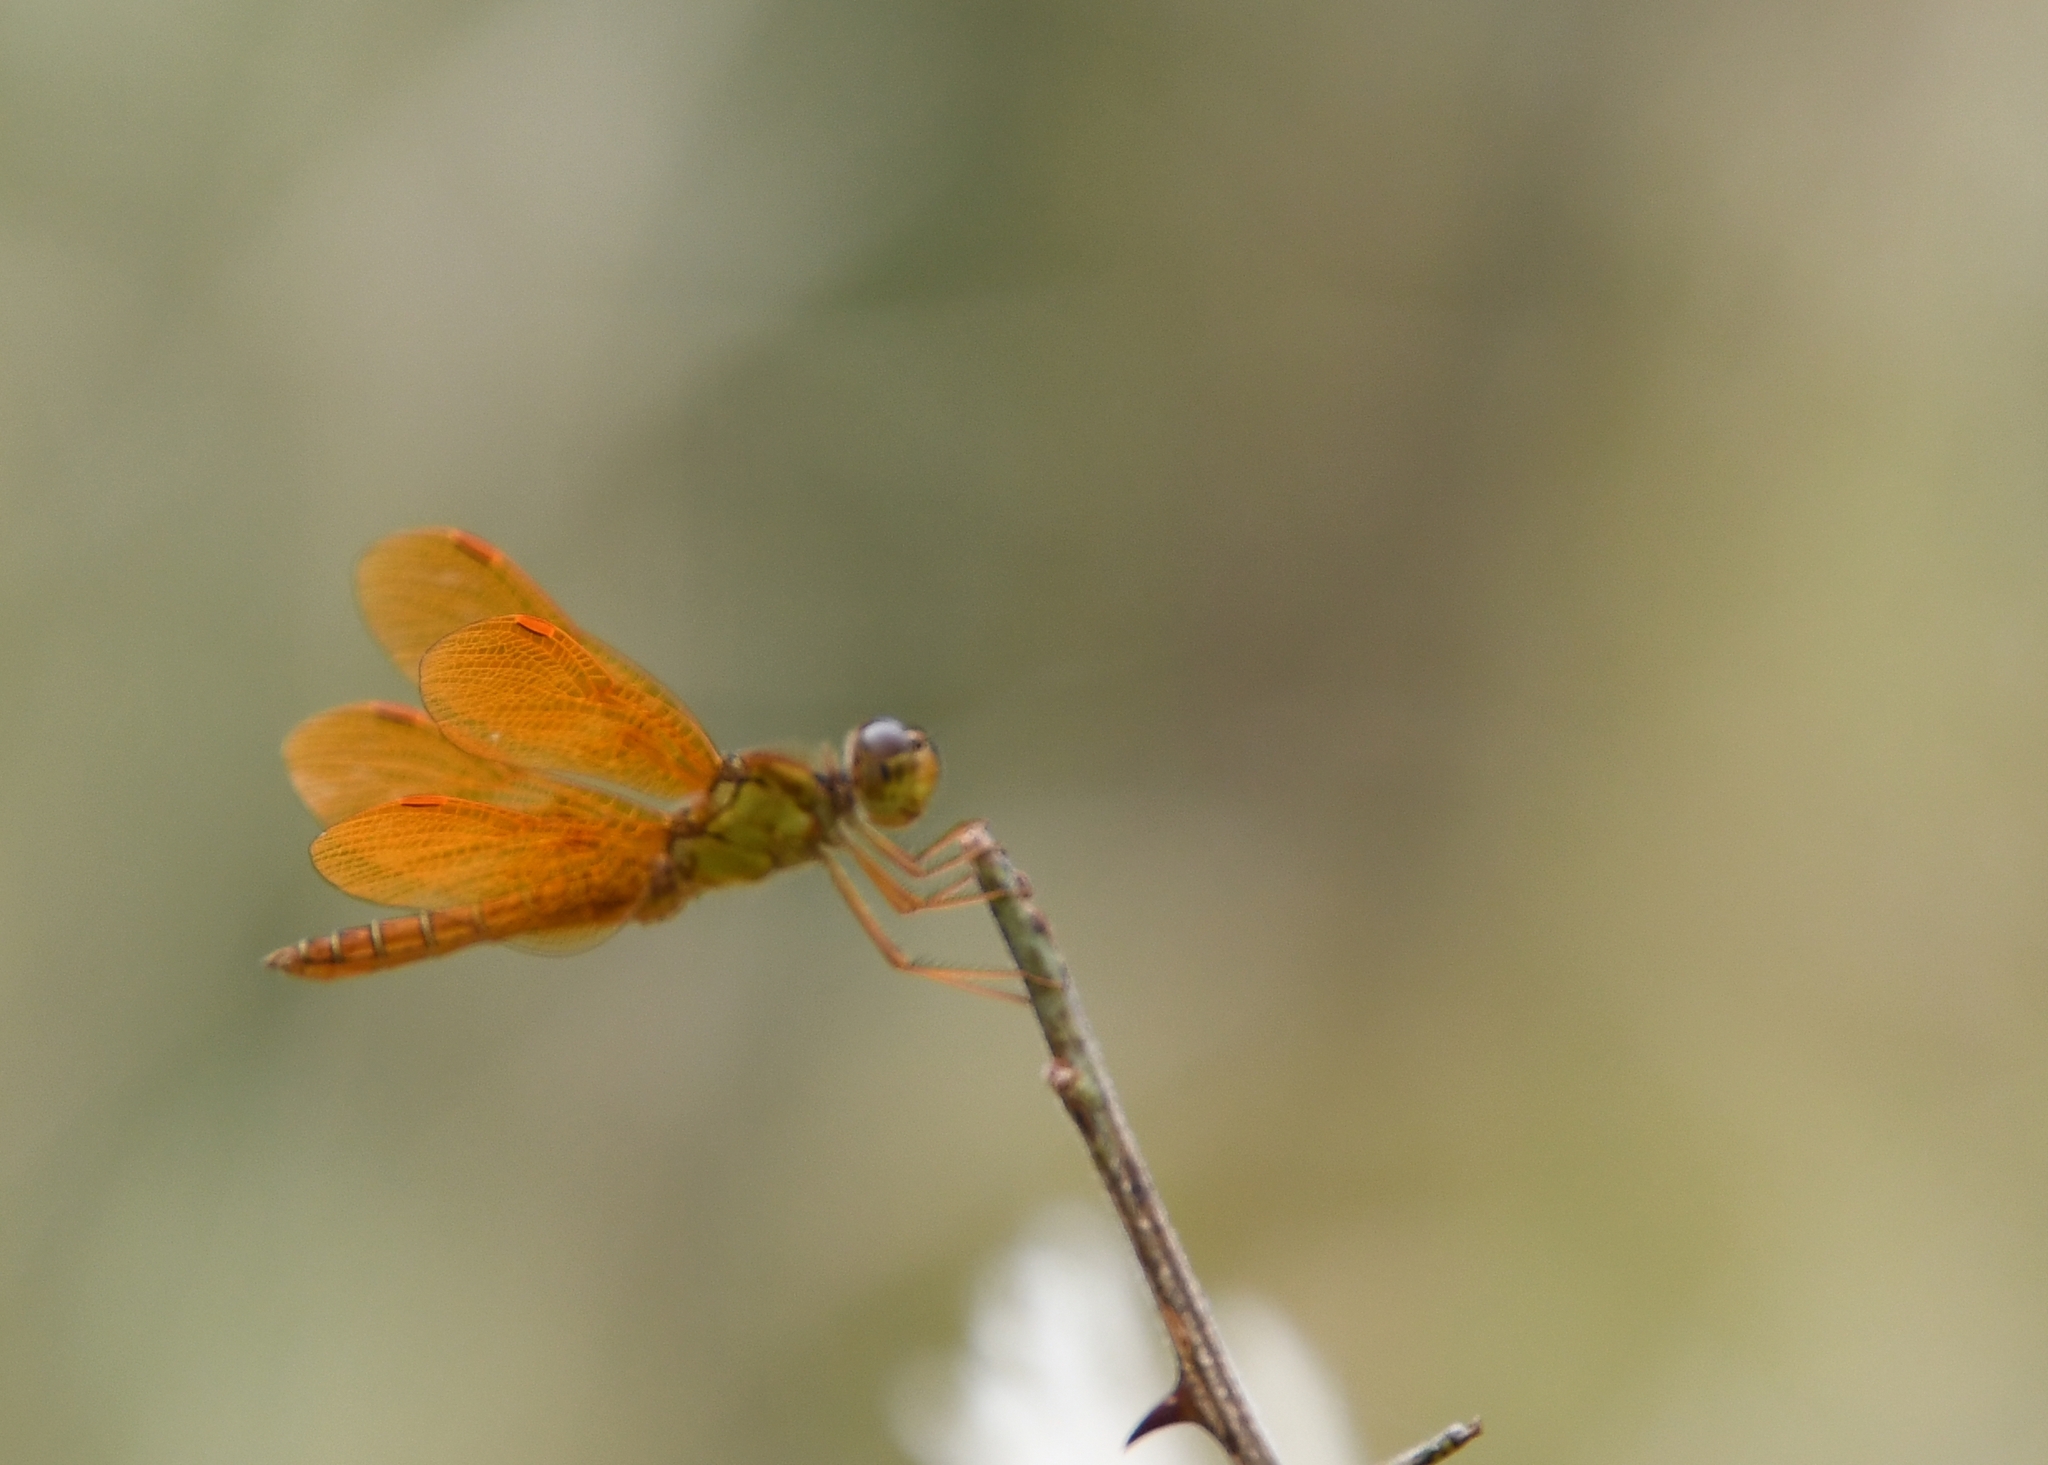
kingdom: Animalia
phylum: Arthropoda
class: Insecta
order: Odonata
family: Libellulidae
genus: Perithemis
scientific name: Perithemis intensa
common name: Mexican amberwing
